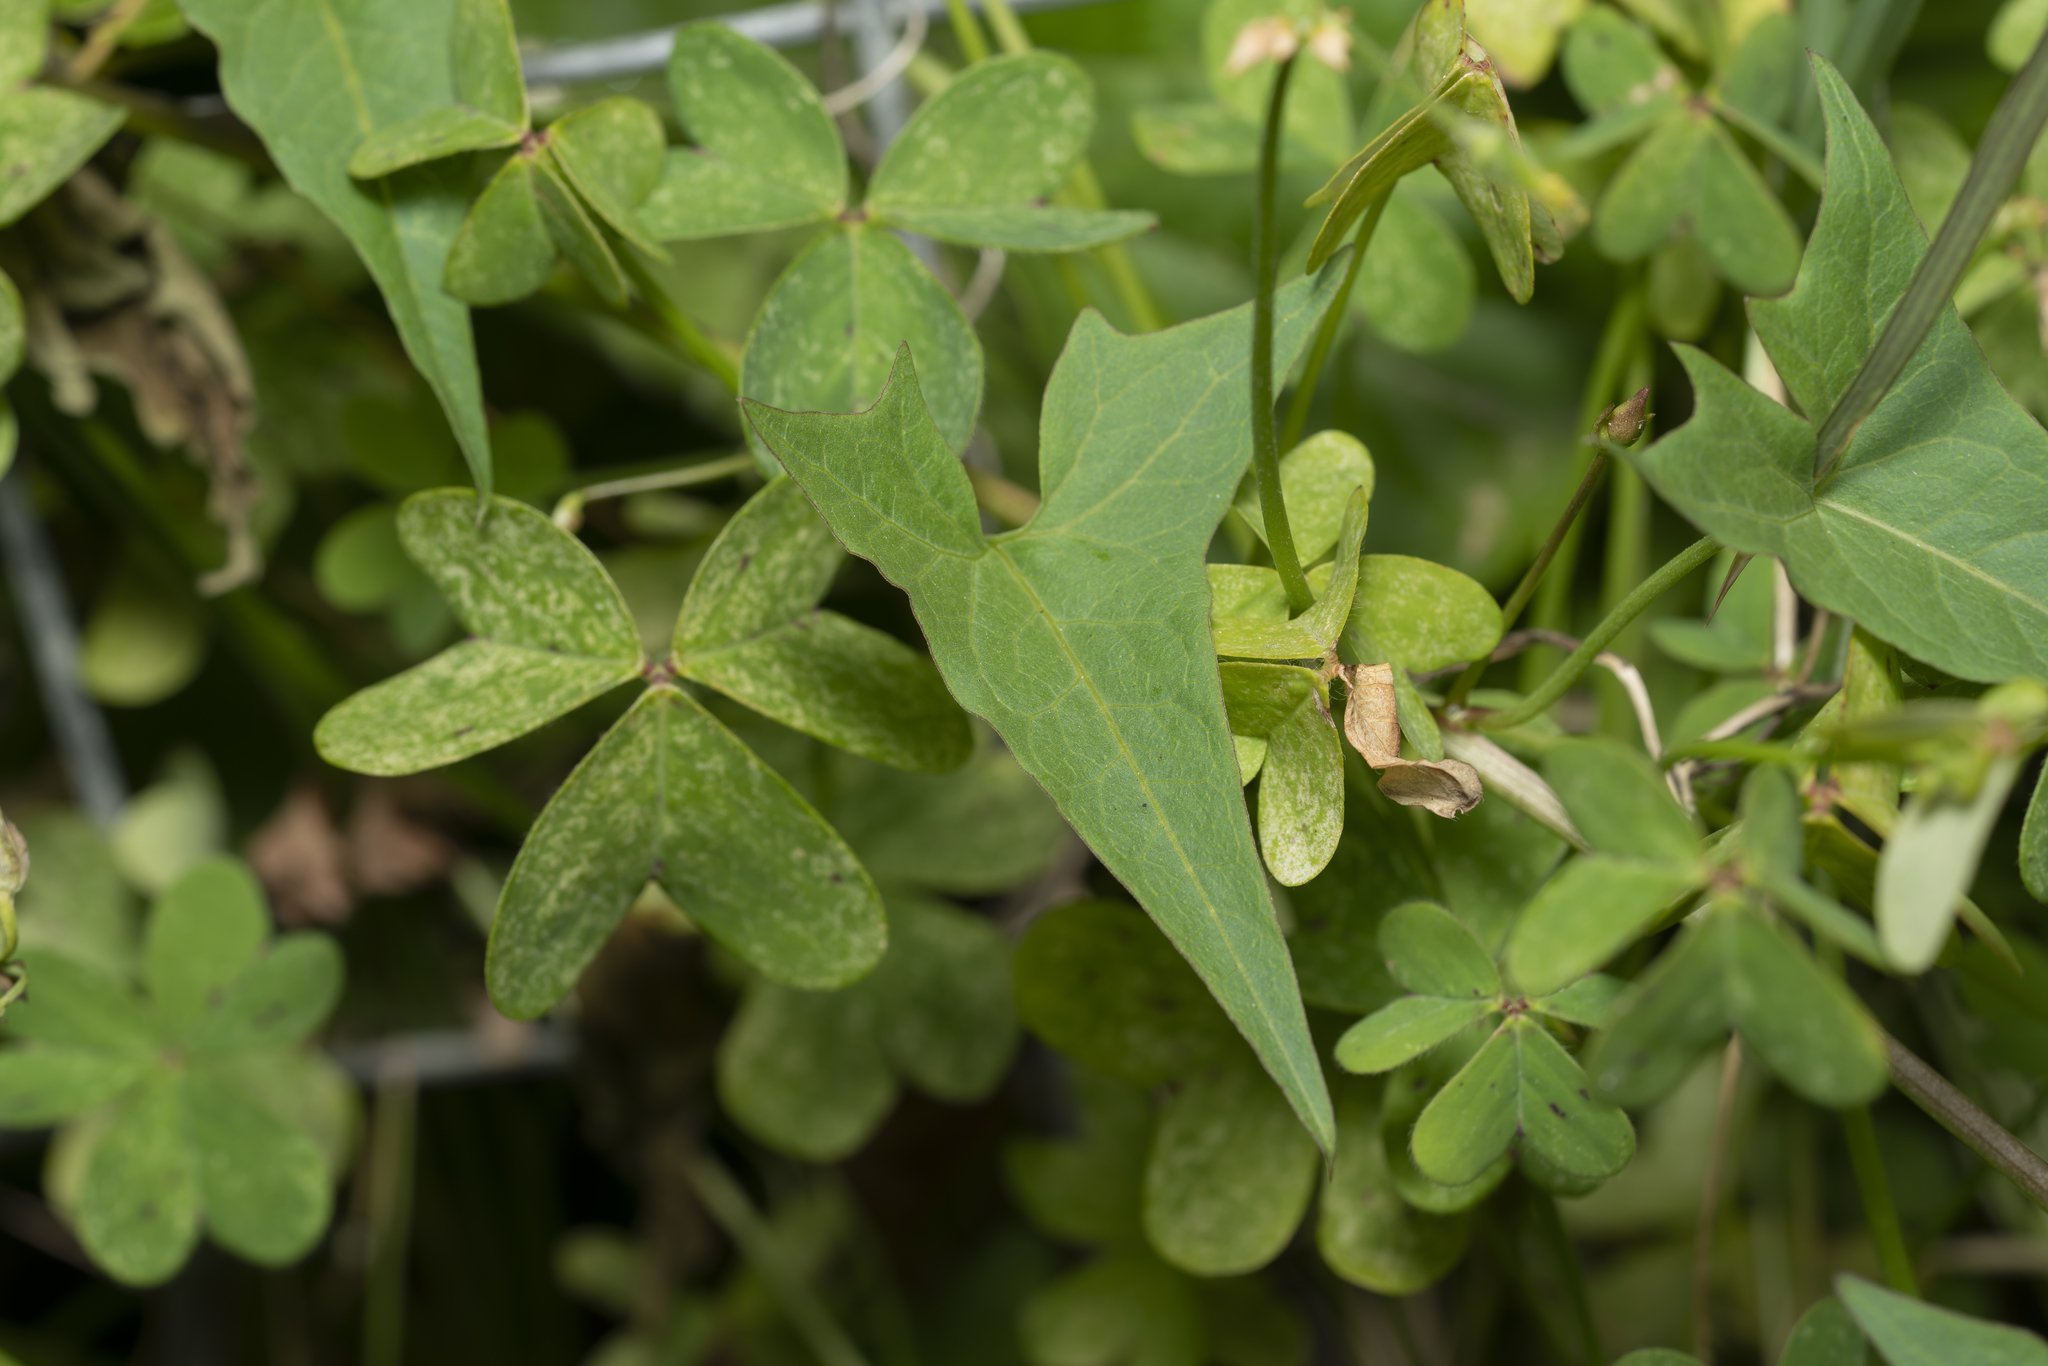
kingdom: Plantae
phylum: Tracheophyta
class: Magnoliopsida
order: Solanales
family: Convolvulaceae
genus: Convolvulus
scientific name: Convolvulus scammonia
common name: Scammony
